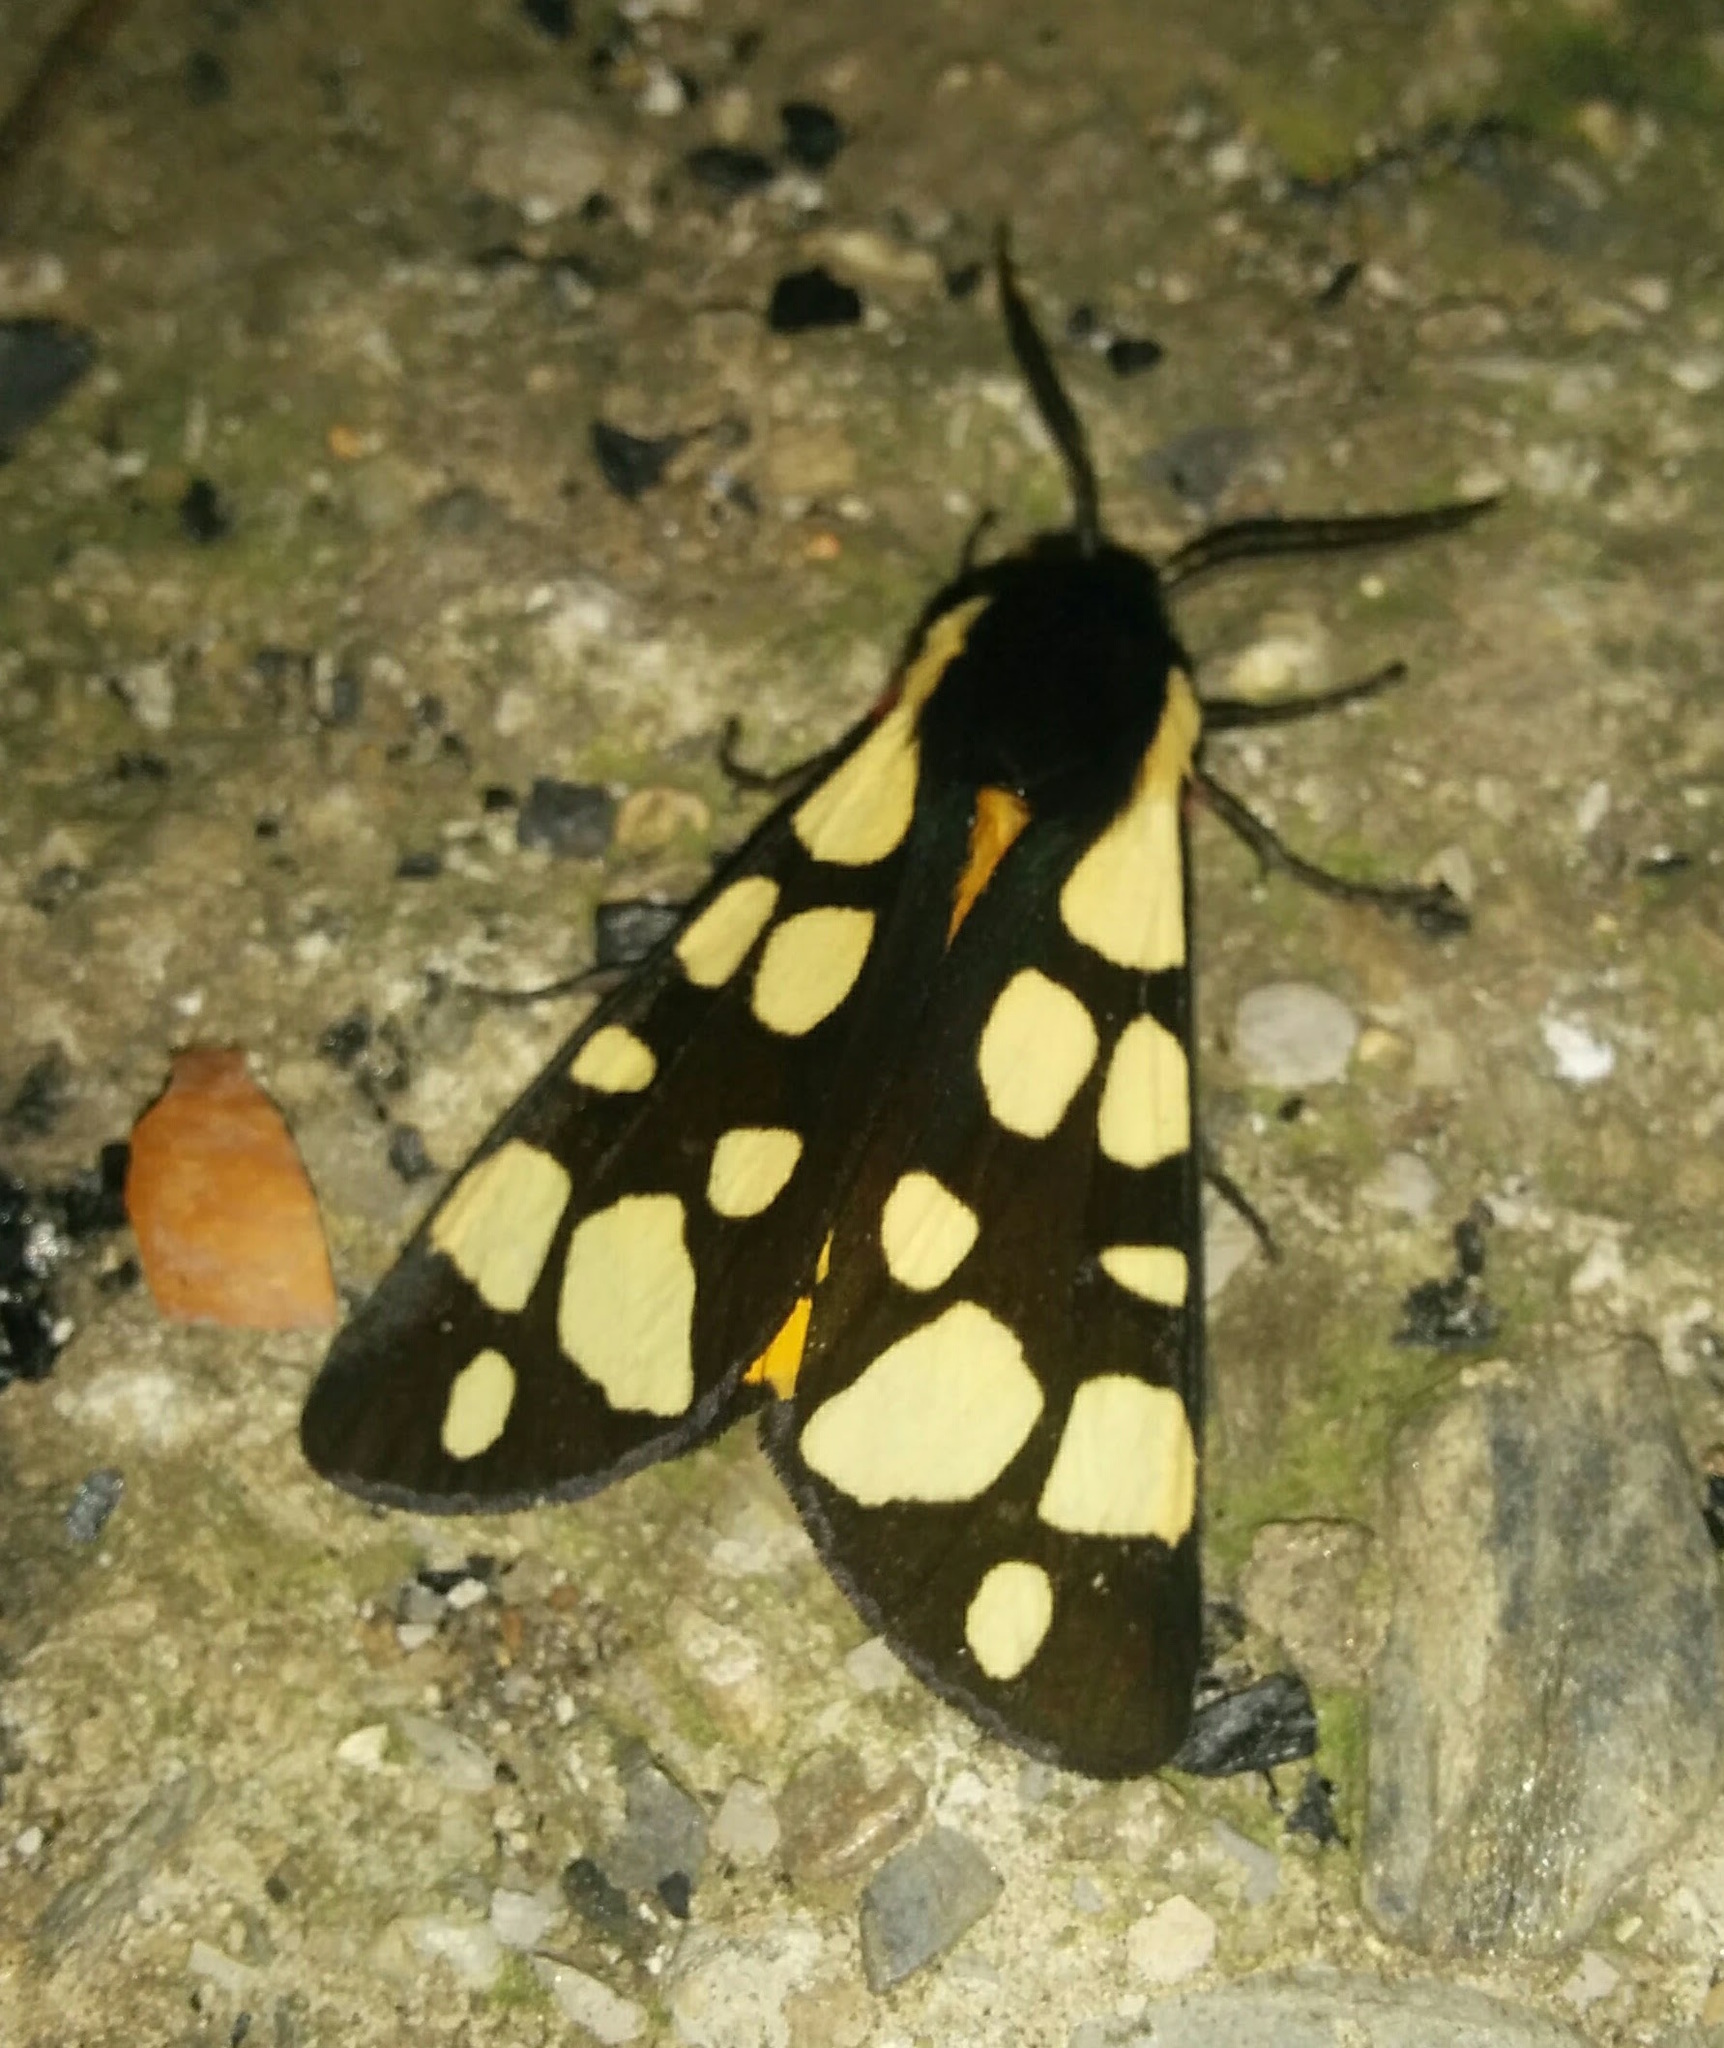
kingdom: Animalia
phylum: Arthropoda
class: Insecta
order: Lepidoptera
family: Erebidae
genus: Epicallia
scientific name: Epicallia villica
